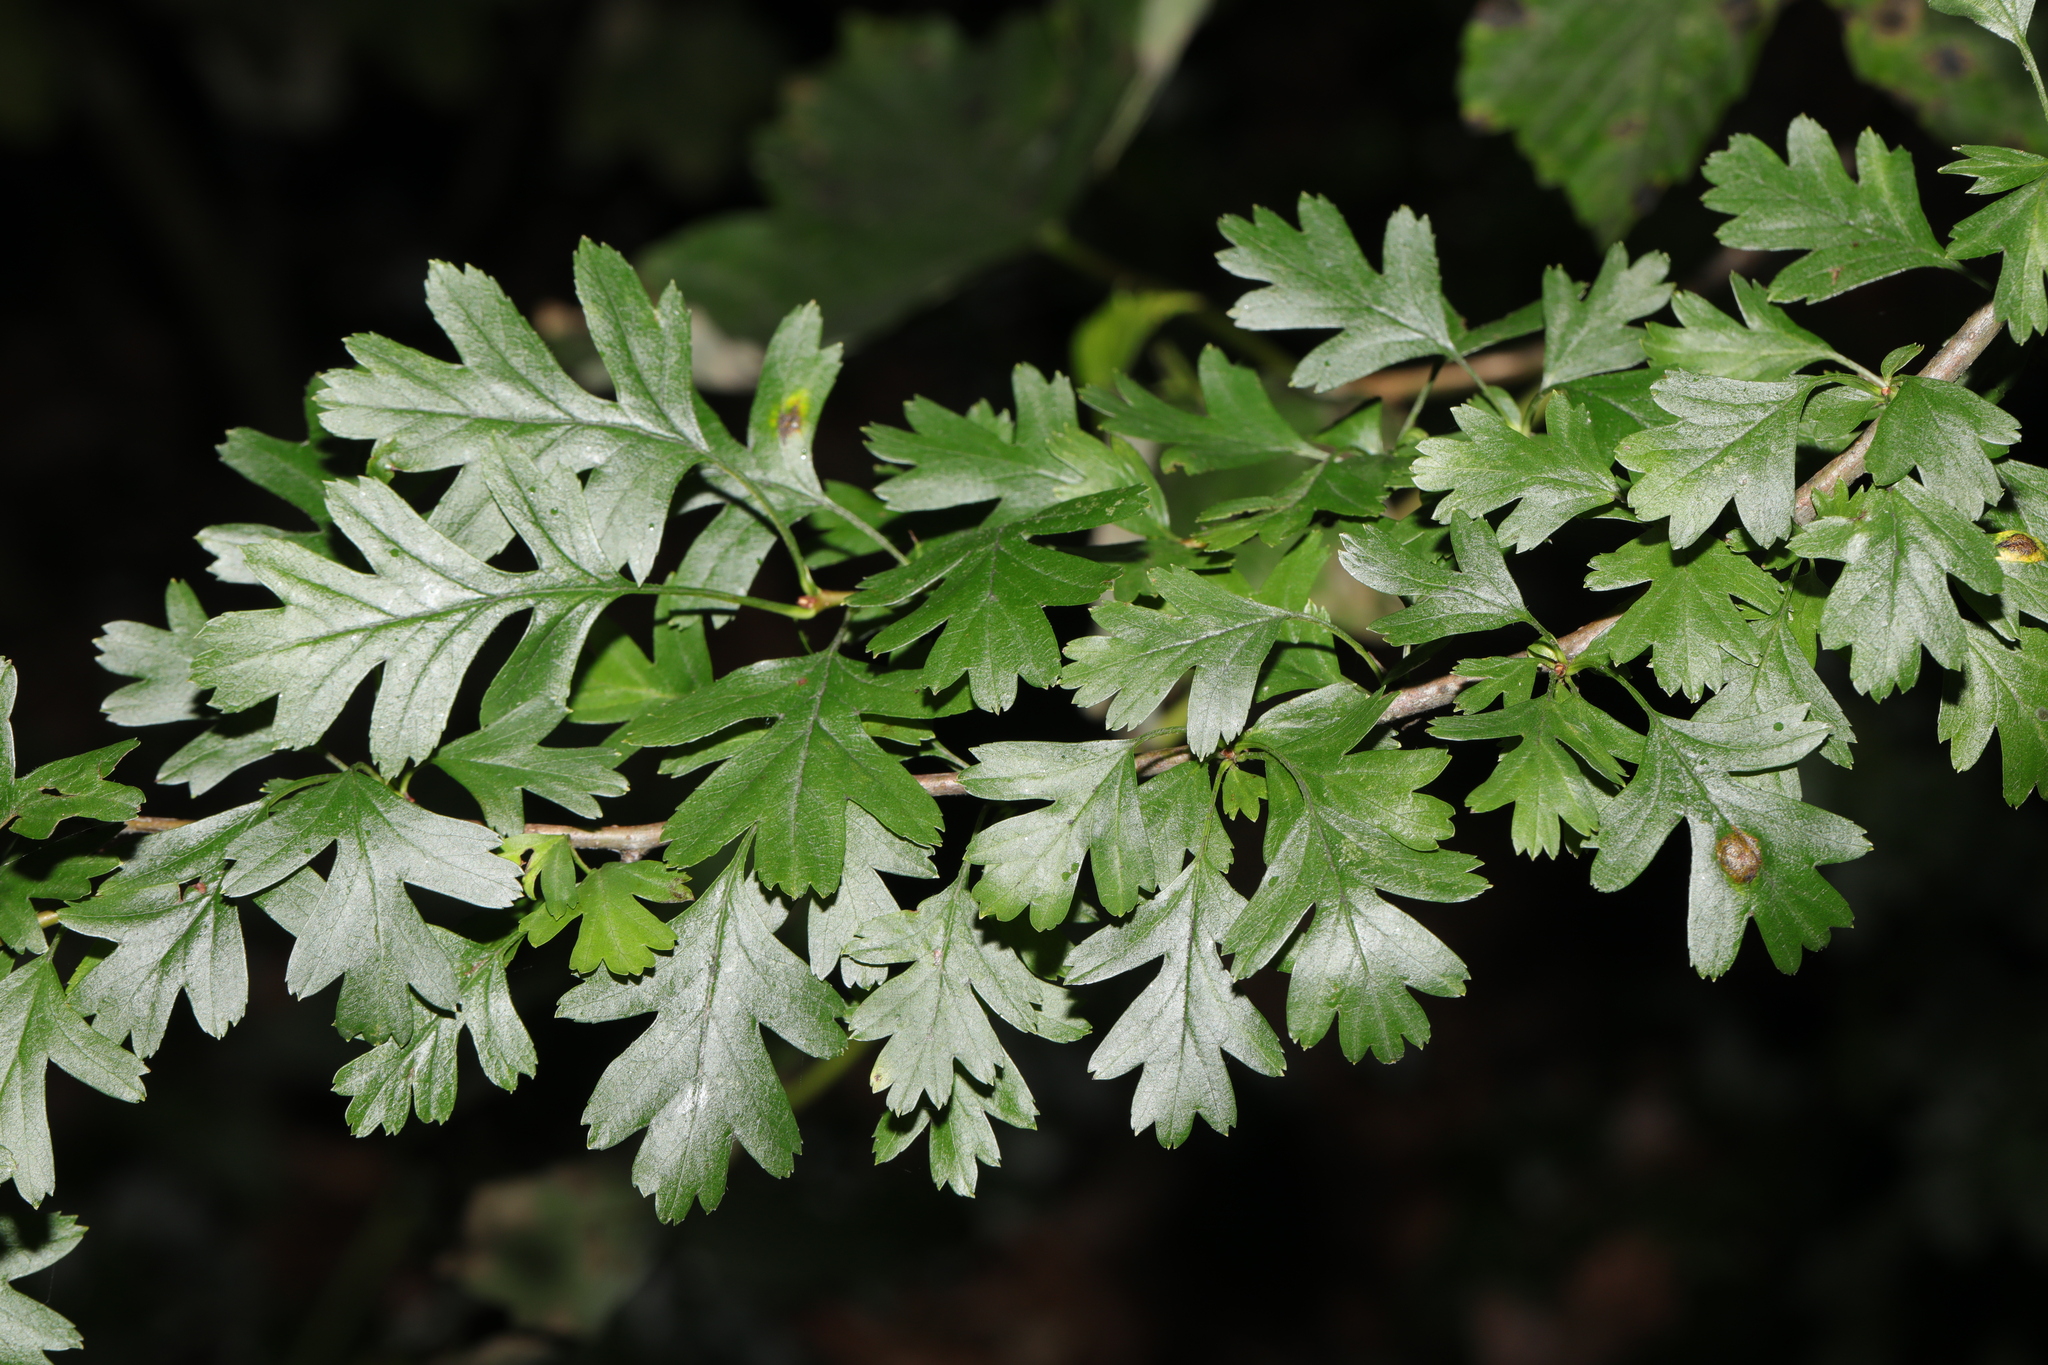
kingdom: Plantae
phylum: Tracheophyta
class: Magnoliopsida
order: Rosales
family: Rosaceae
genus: Crataegus
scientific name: Crataegus monogyna
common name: Hawthorn
